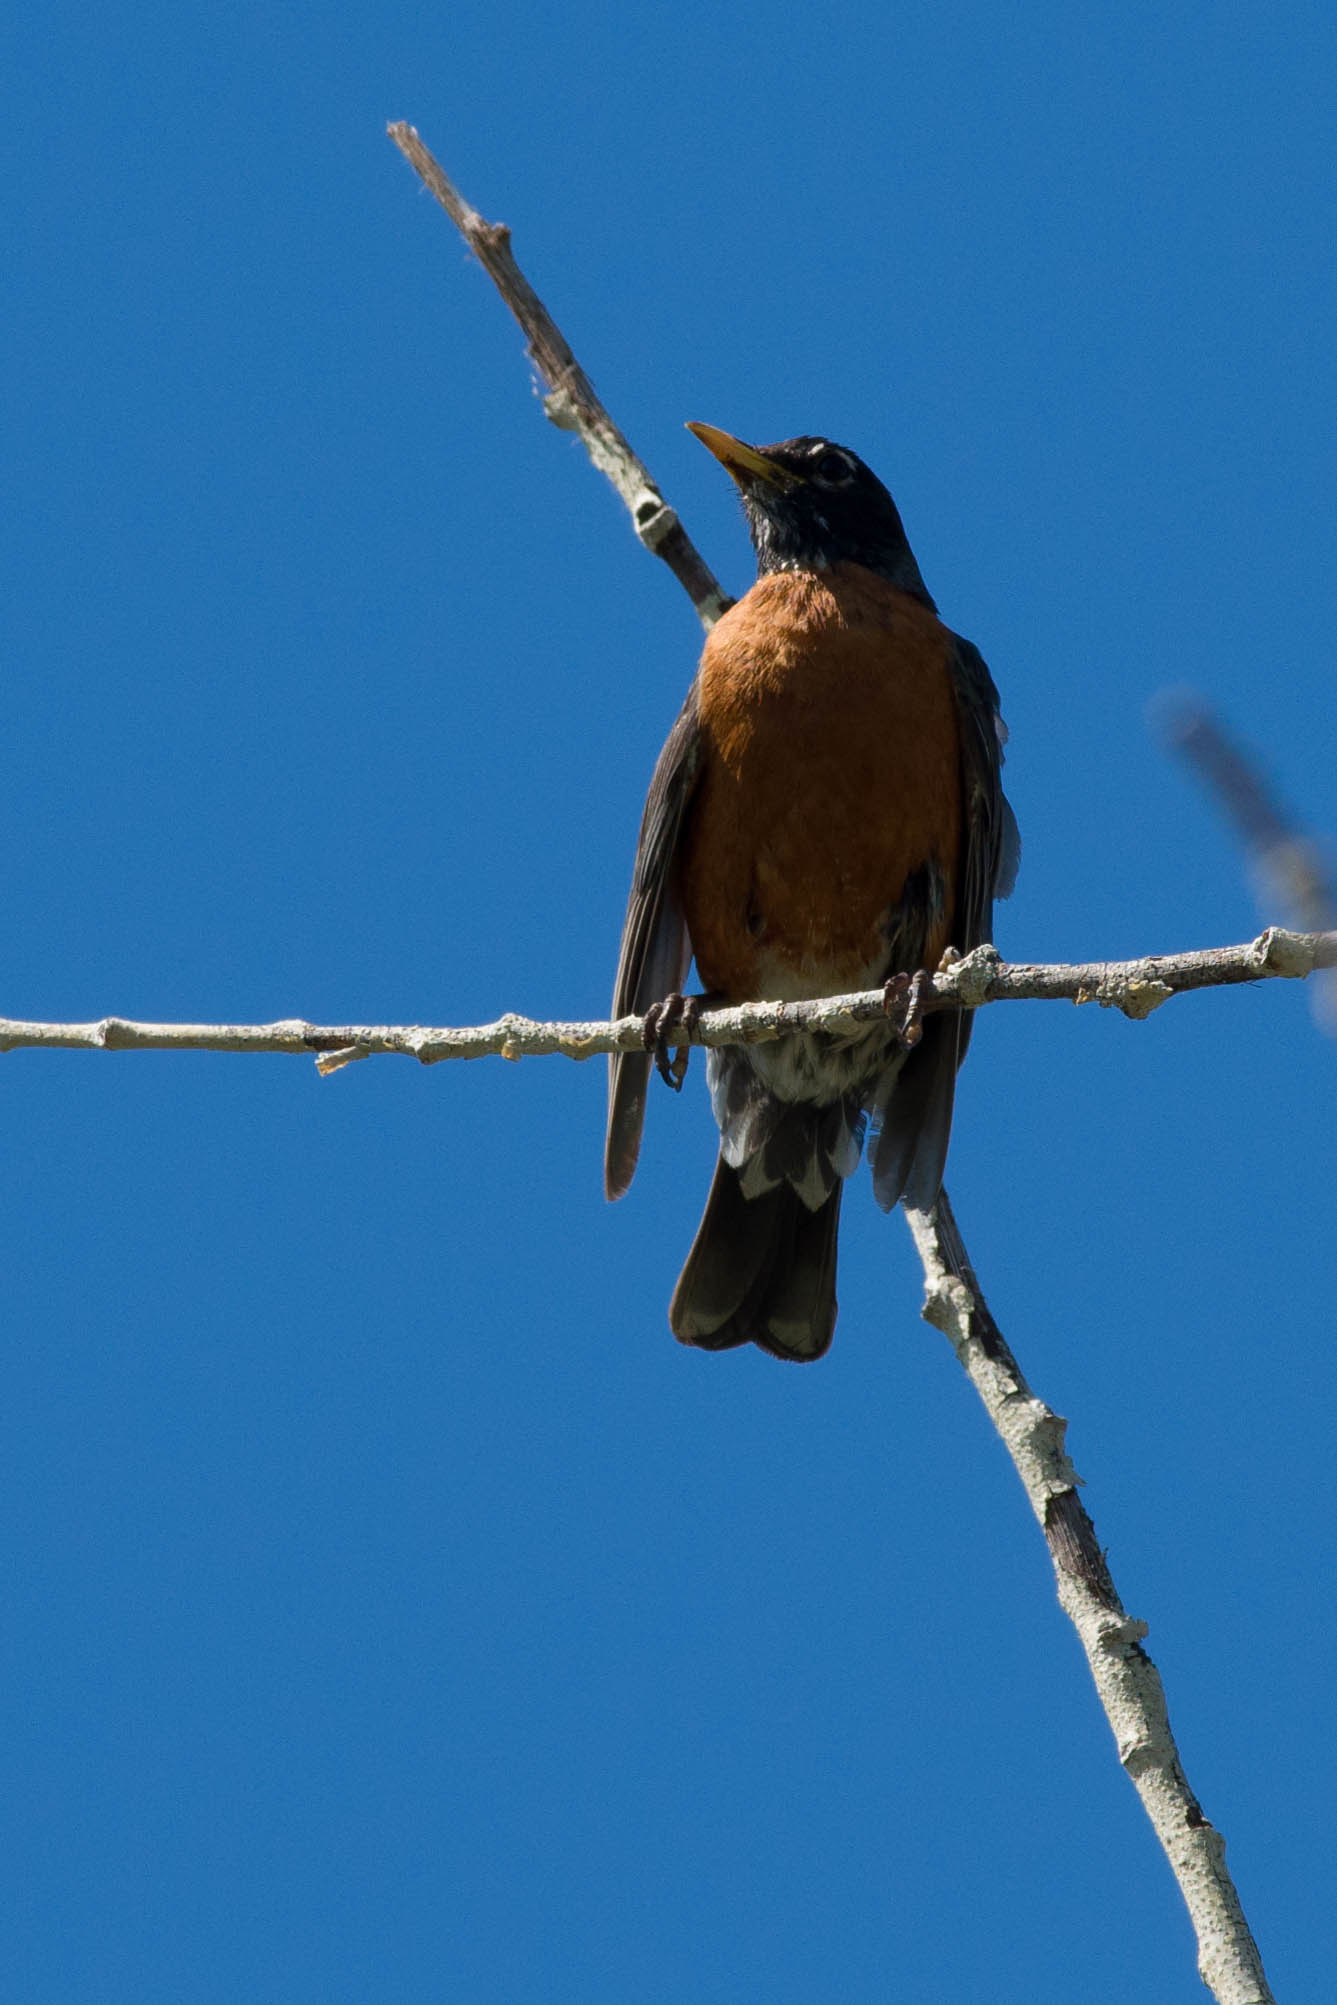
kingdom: Animalia
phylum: Chordata
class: Aves
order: Passeriformes
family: Turdidae
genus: Turdus
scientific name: Turdus migratorius
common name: American robin
